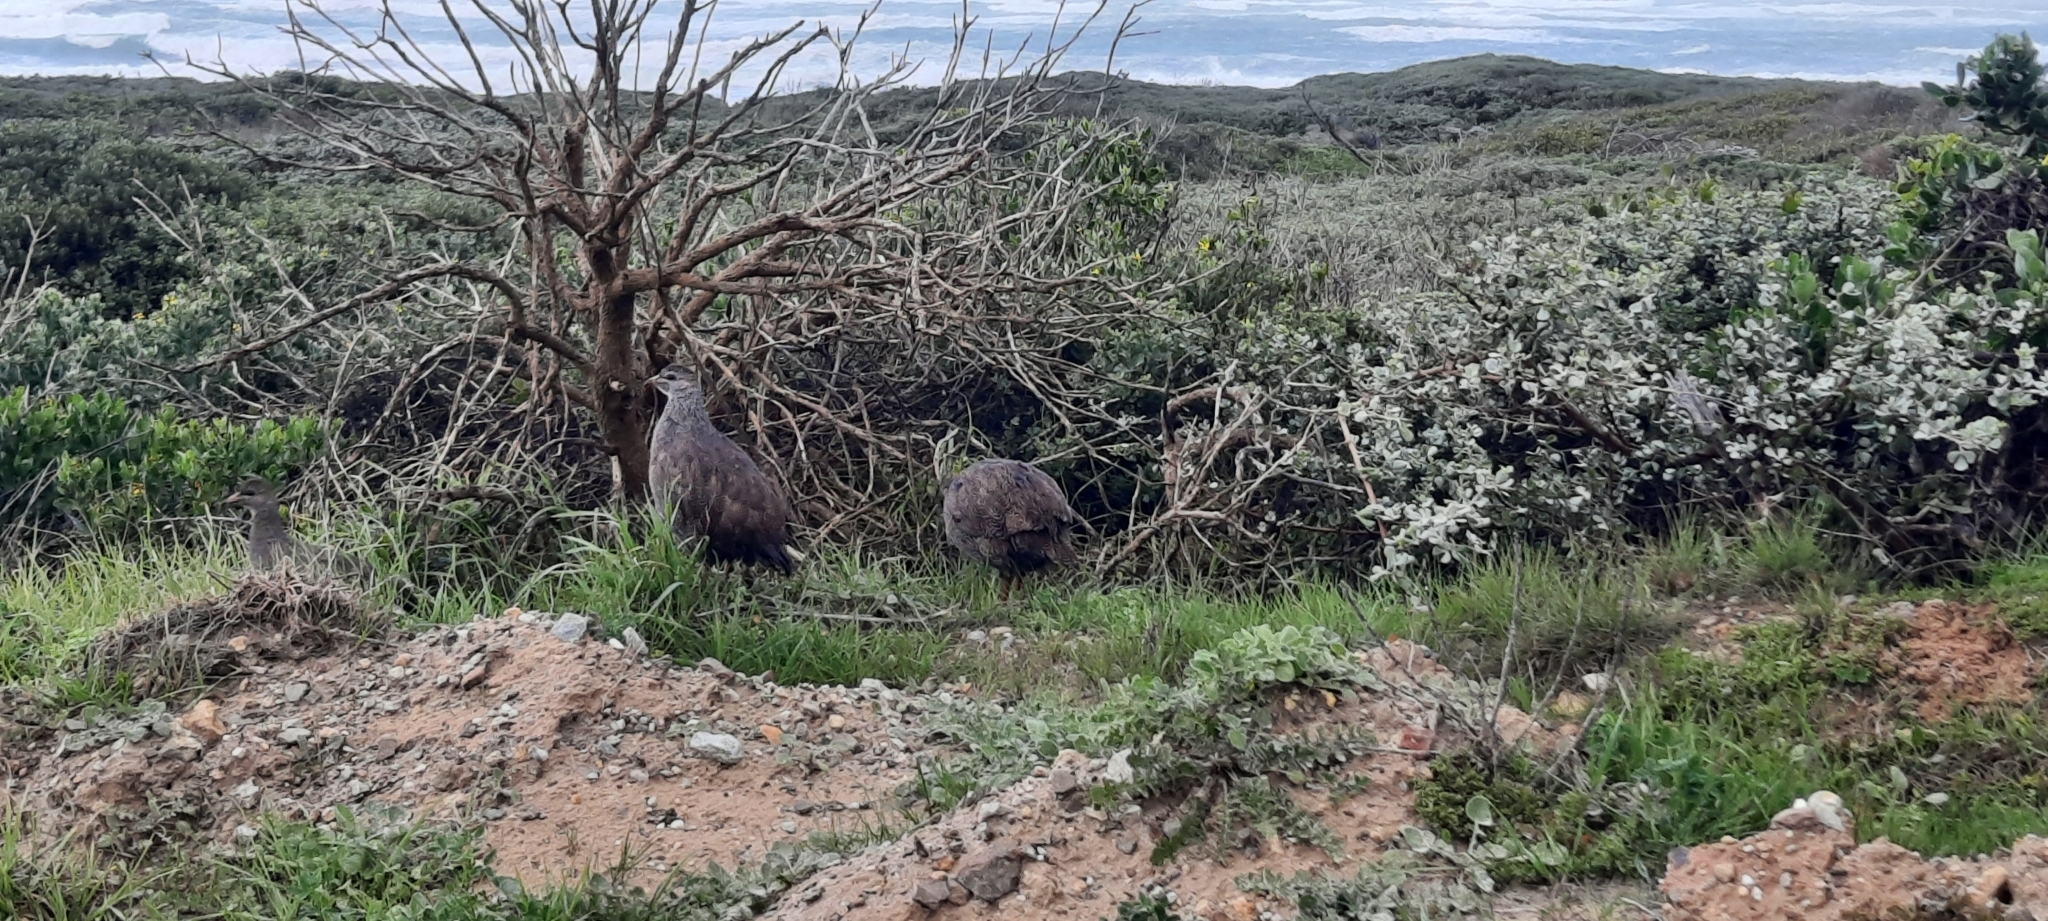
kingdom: Animalia
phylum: Chordata
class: Aves
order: Galliformes
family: Phasianidae
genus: Pternistis
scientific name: Pternistis capensis
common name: Cape spurfowl
